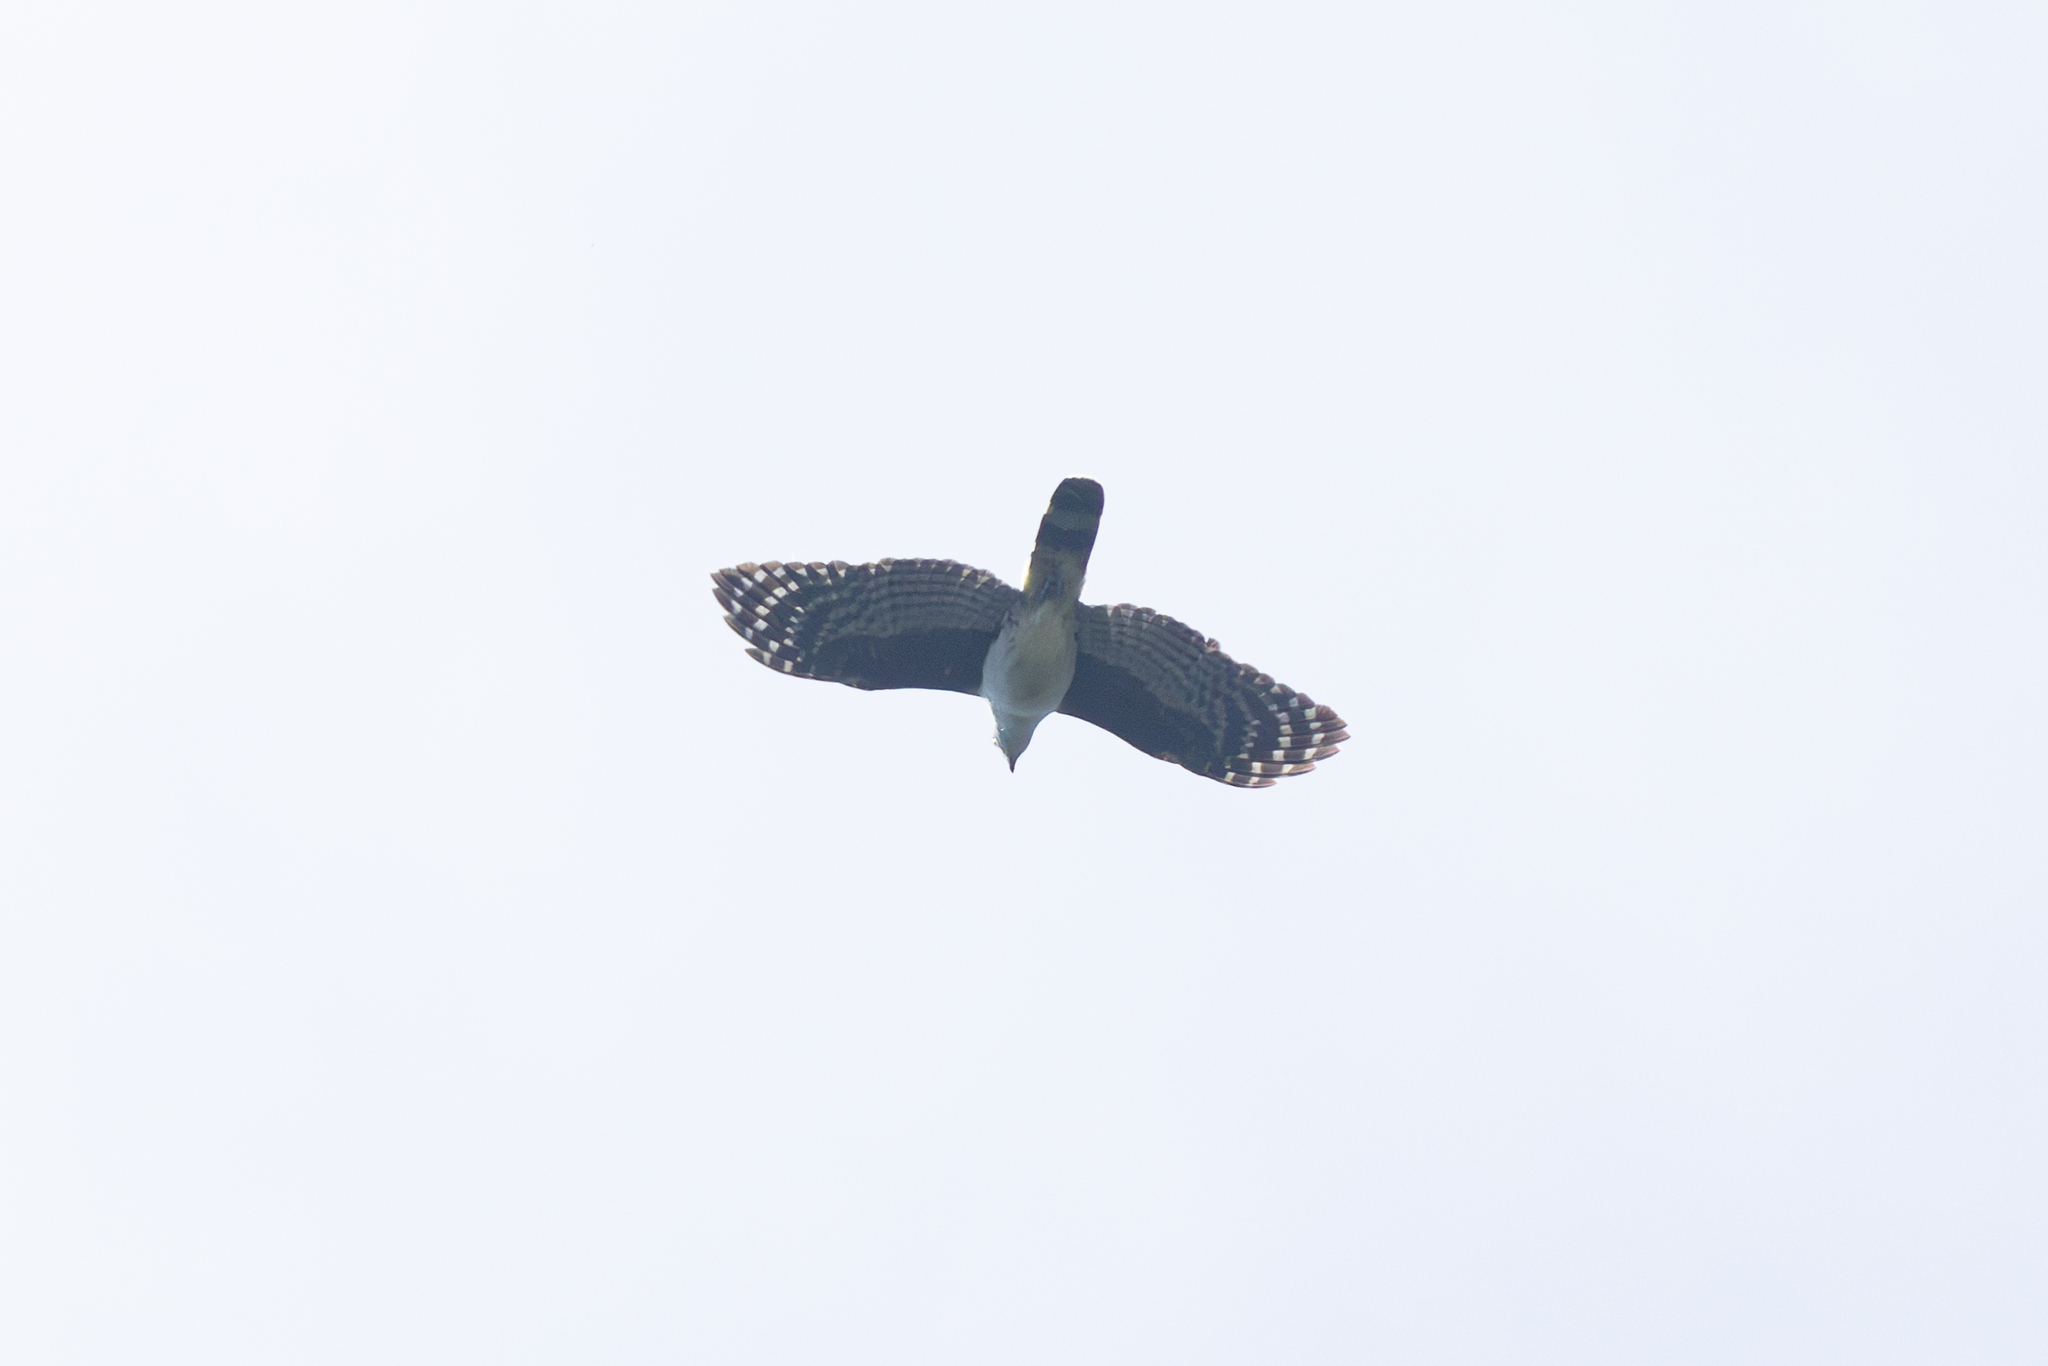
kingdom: Animalia
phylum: Chordata
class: Aves
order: Accipitriformes
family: Accipitridae
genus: Leptodon
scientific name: Leptodon cayanensis
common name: Gray-headed kite
